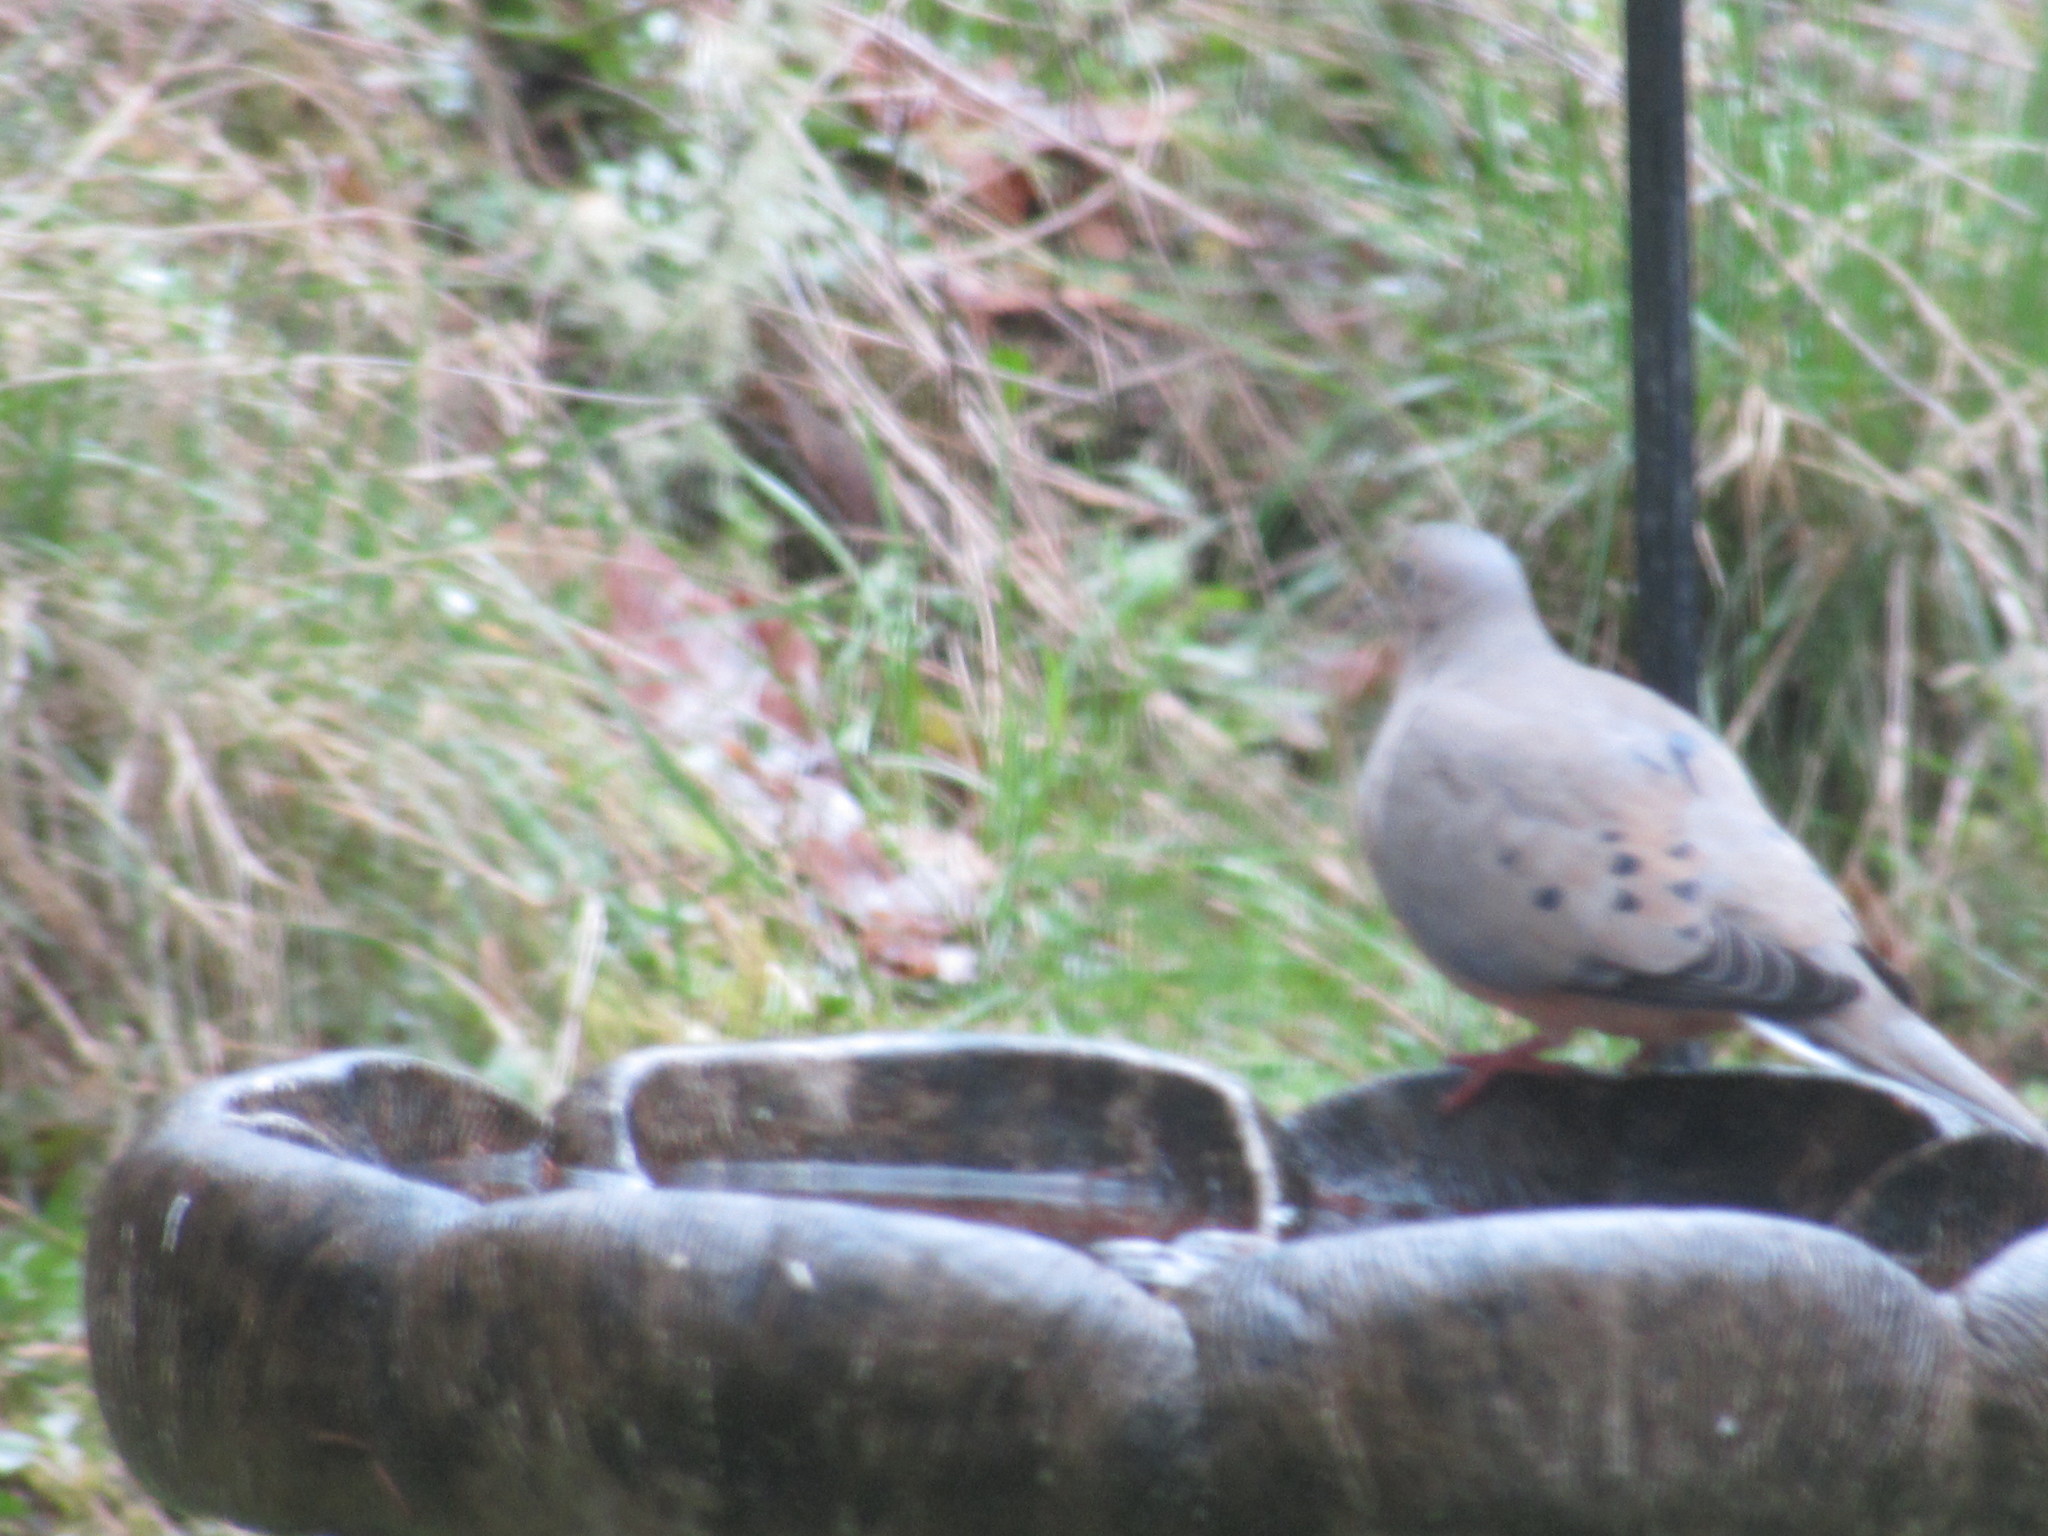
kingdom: Animalia
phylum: Chordata
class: Aves
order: Columbiformes
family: Columbidae
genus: Zenaida
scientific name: Zenaida macroura
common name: Mourning dove
